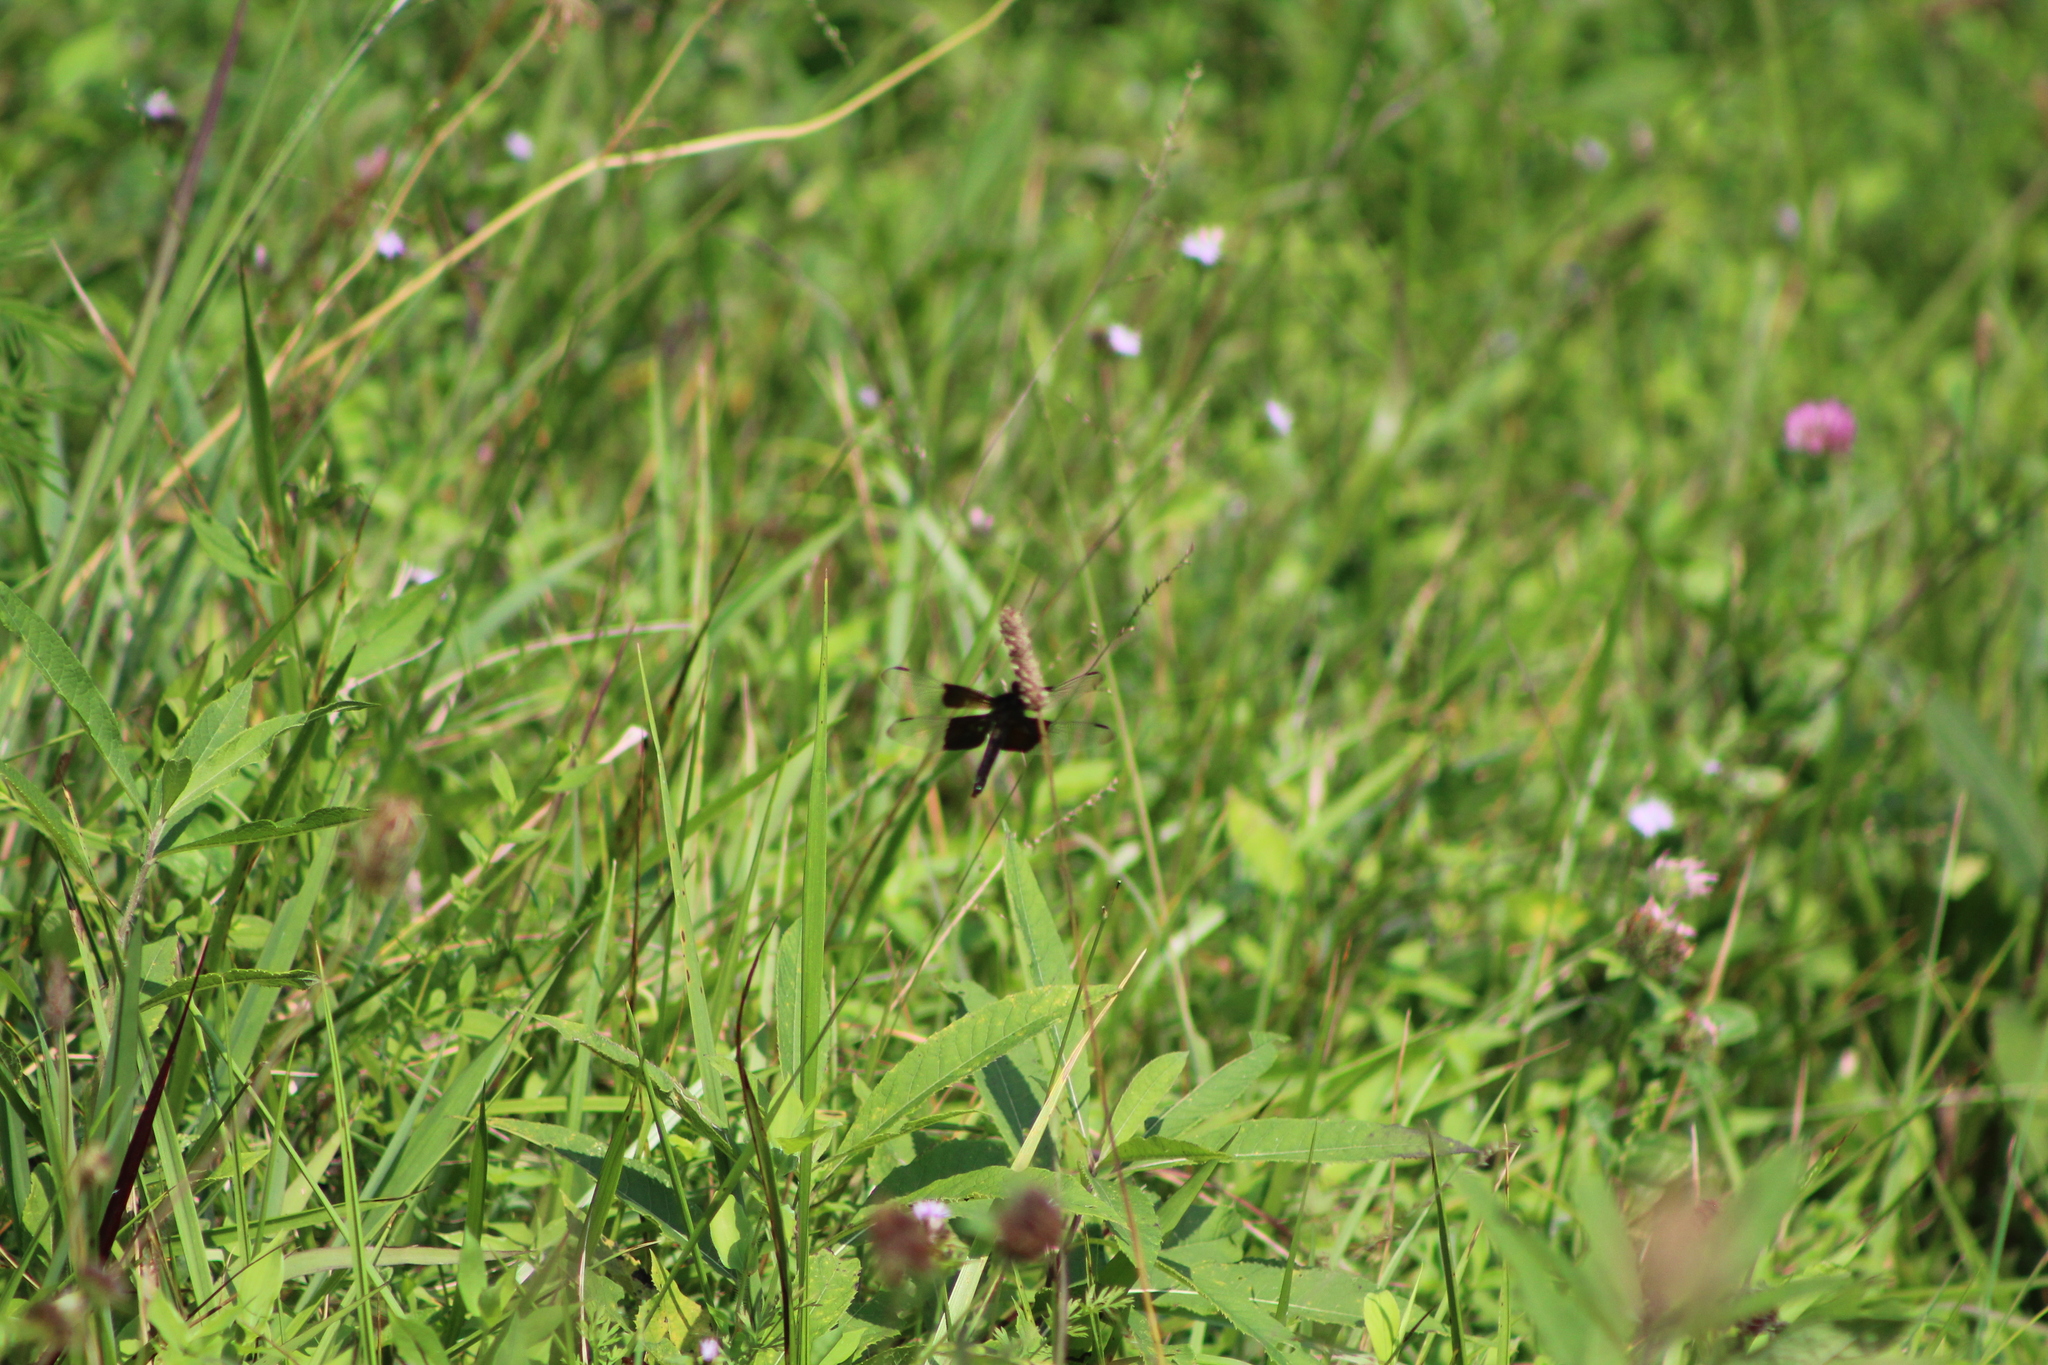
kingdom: Animalia
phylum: Arthropoda
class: Insecta
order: Odonata
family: Libellulidae
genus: Libellula
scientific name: Libellula luctuosa
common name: Widow skimmer
